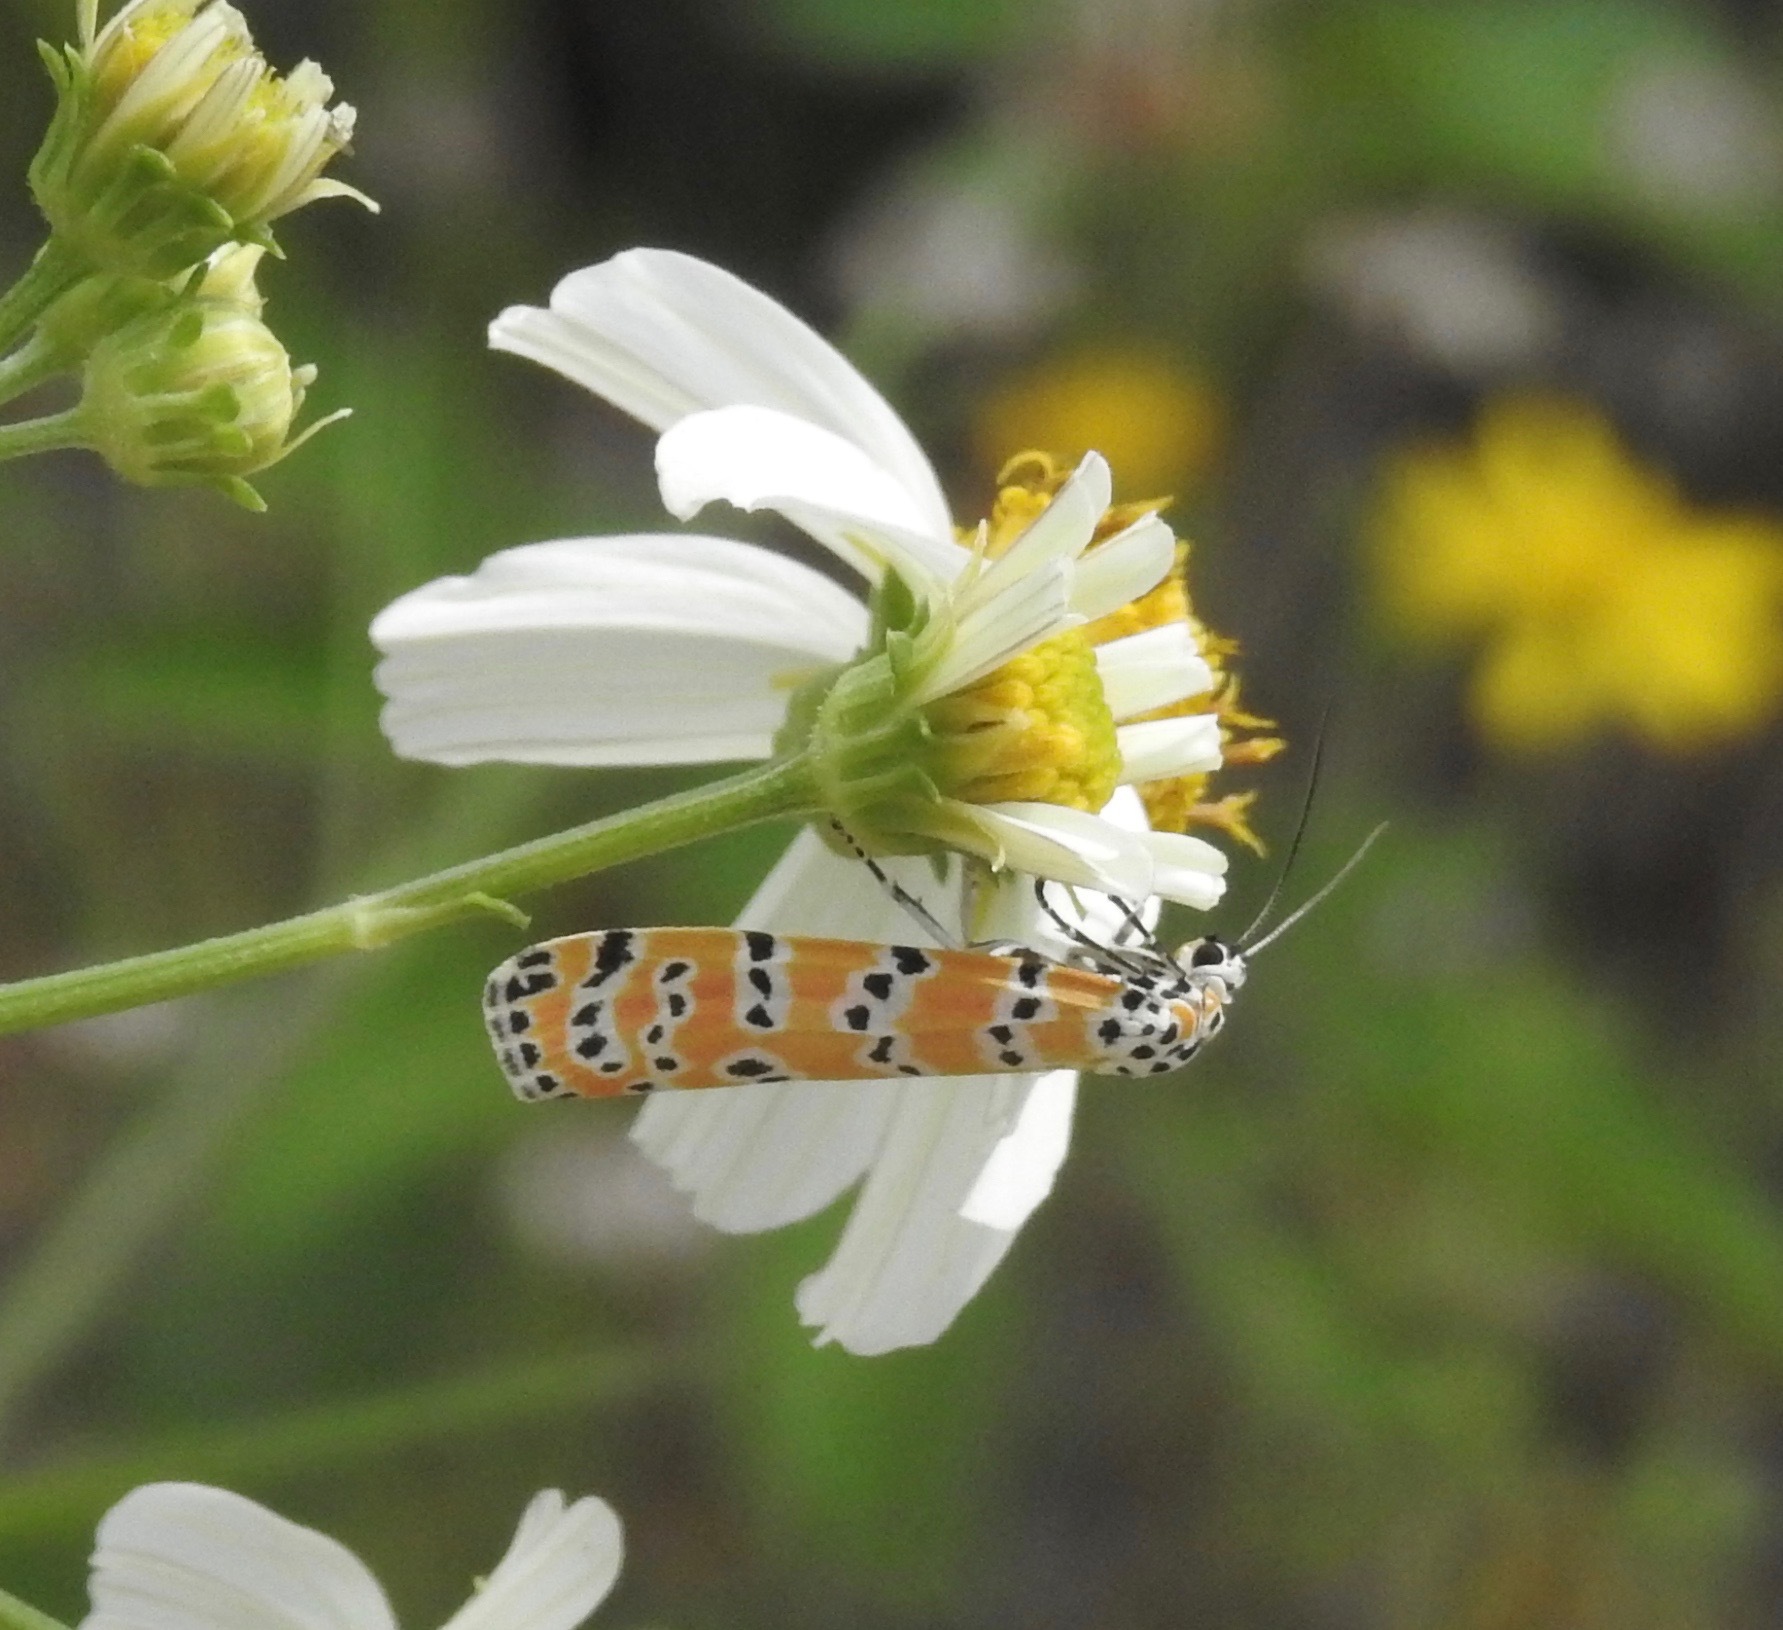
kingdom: Animalia
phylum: Arthropoda
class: Insecta
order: Lepidoptera
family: Erebidae
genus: Utetheisa
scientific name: Utetheisa ornatrix
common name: Beautiful utetheisa
